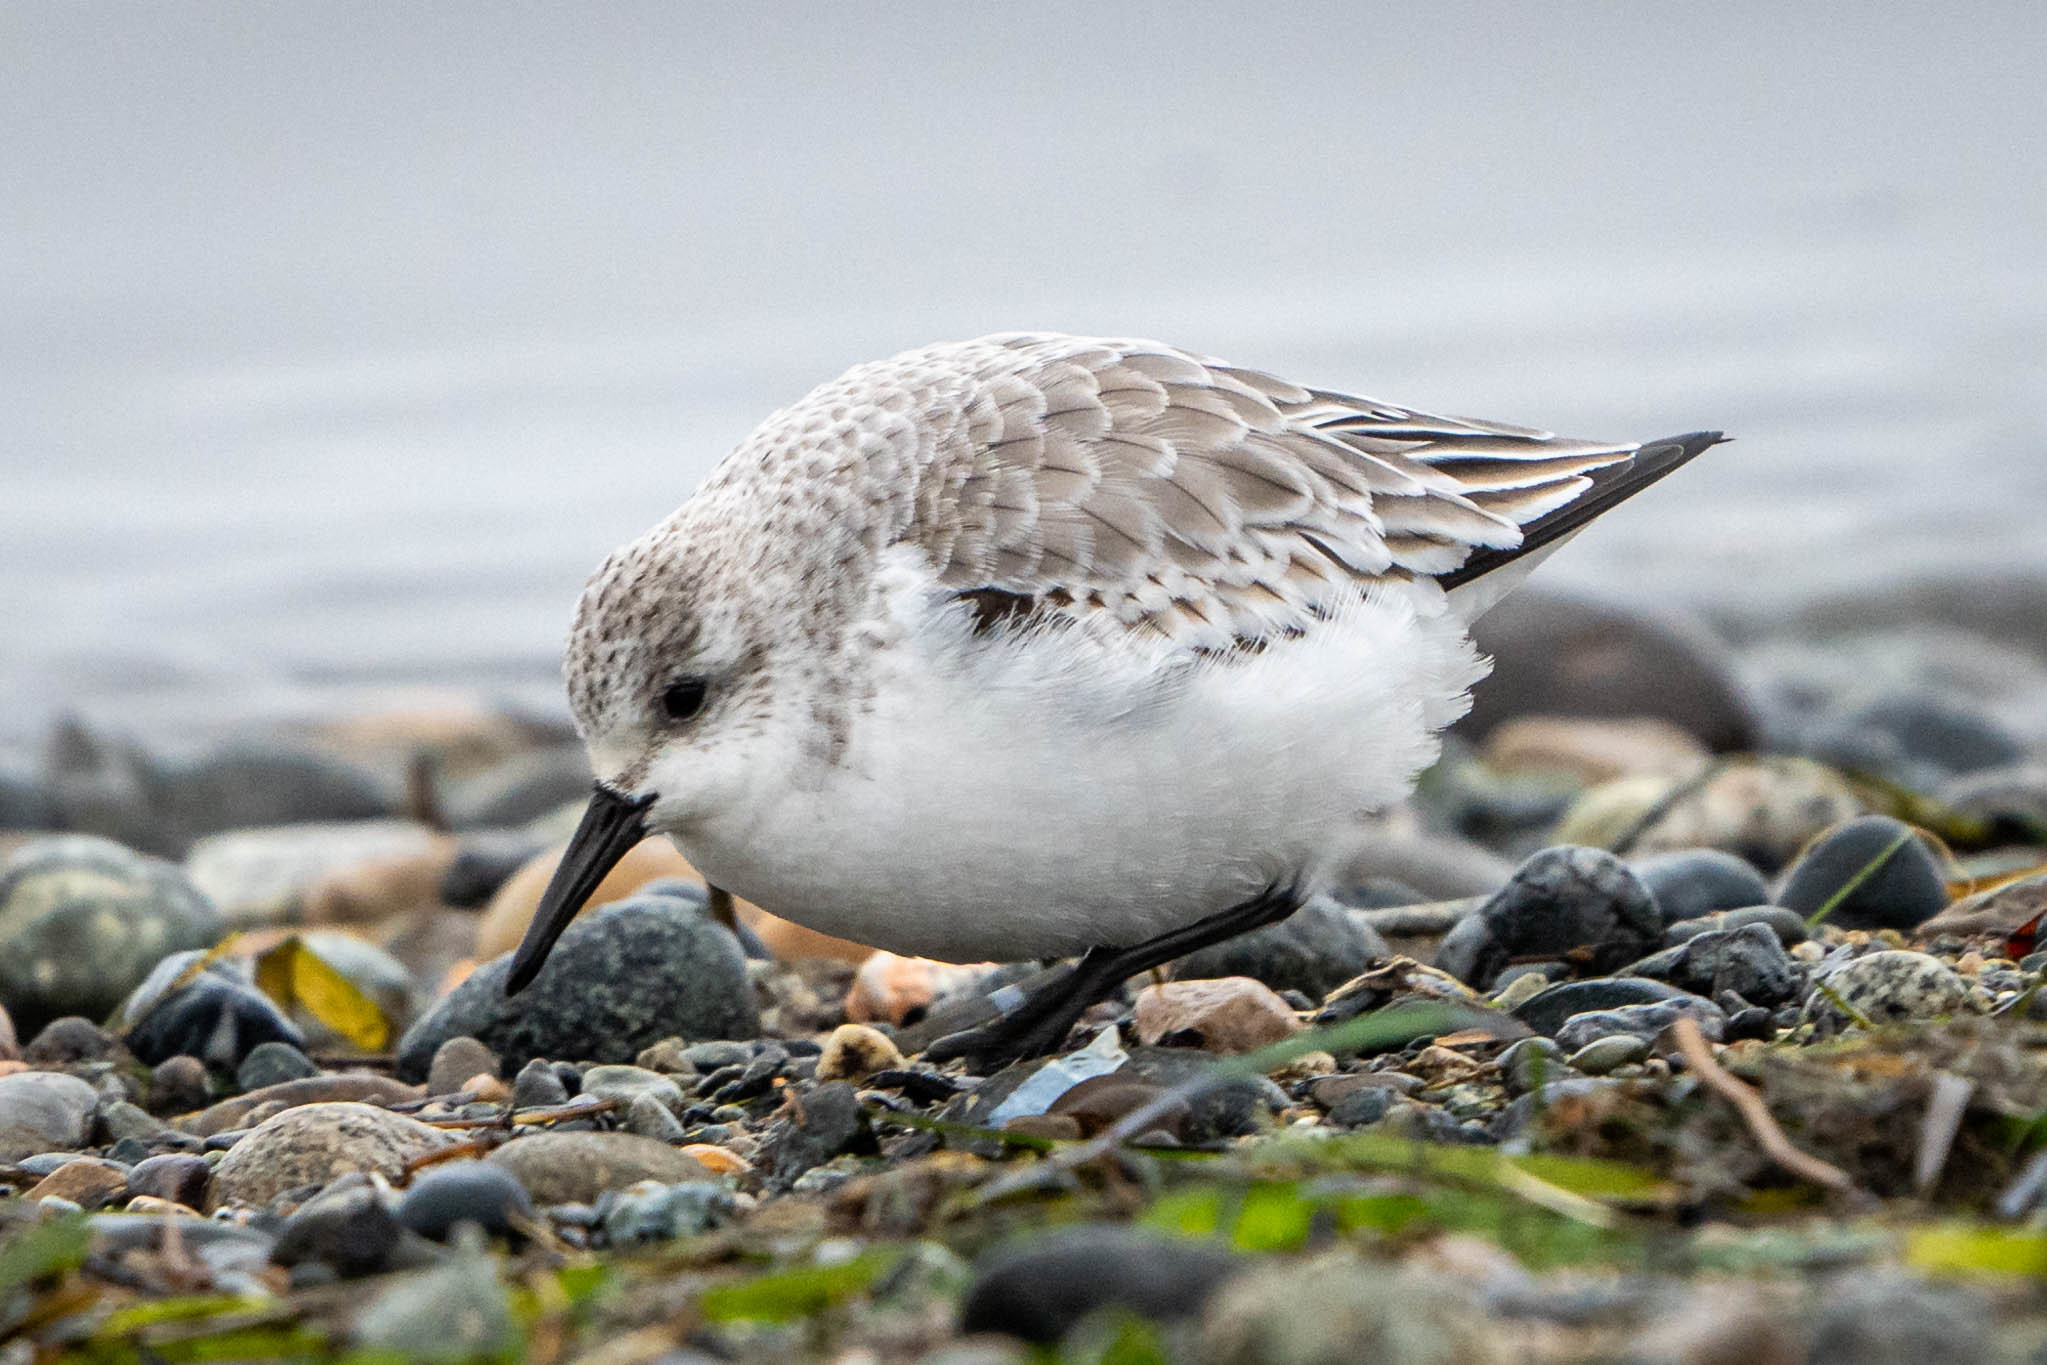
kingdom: Animalia
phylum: Chordata
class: Aves
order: Charadriiformes
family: Scolopacidae
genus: Calidris
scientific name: Calidris alba
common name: Sanderling
